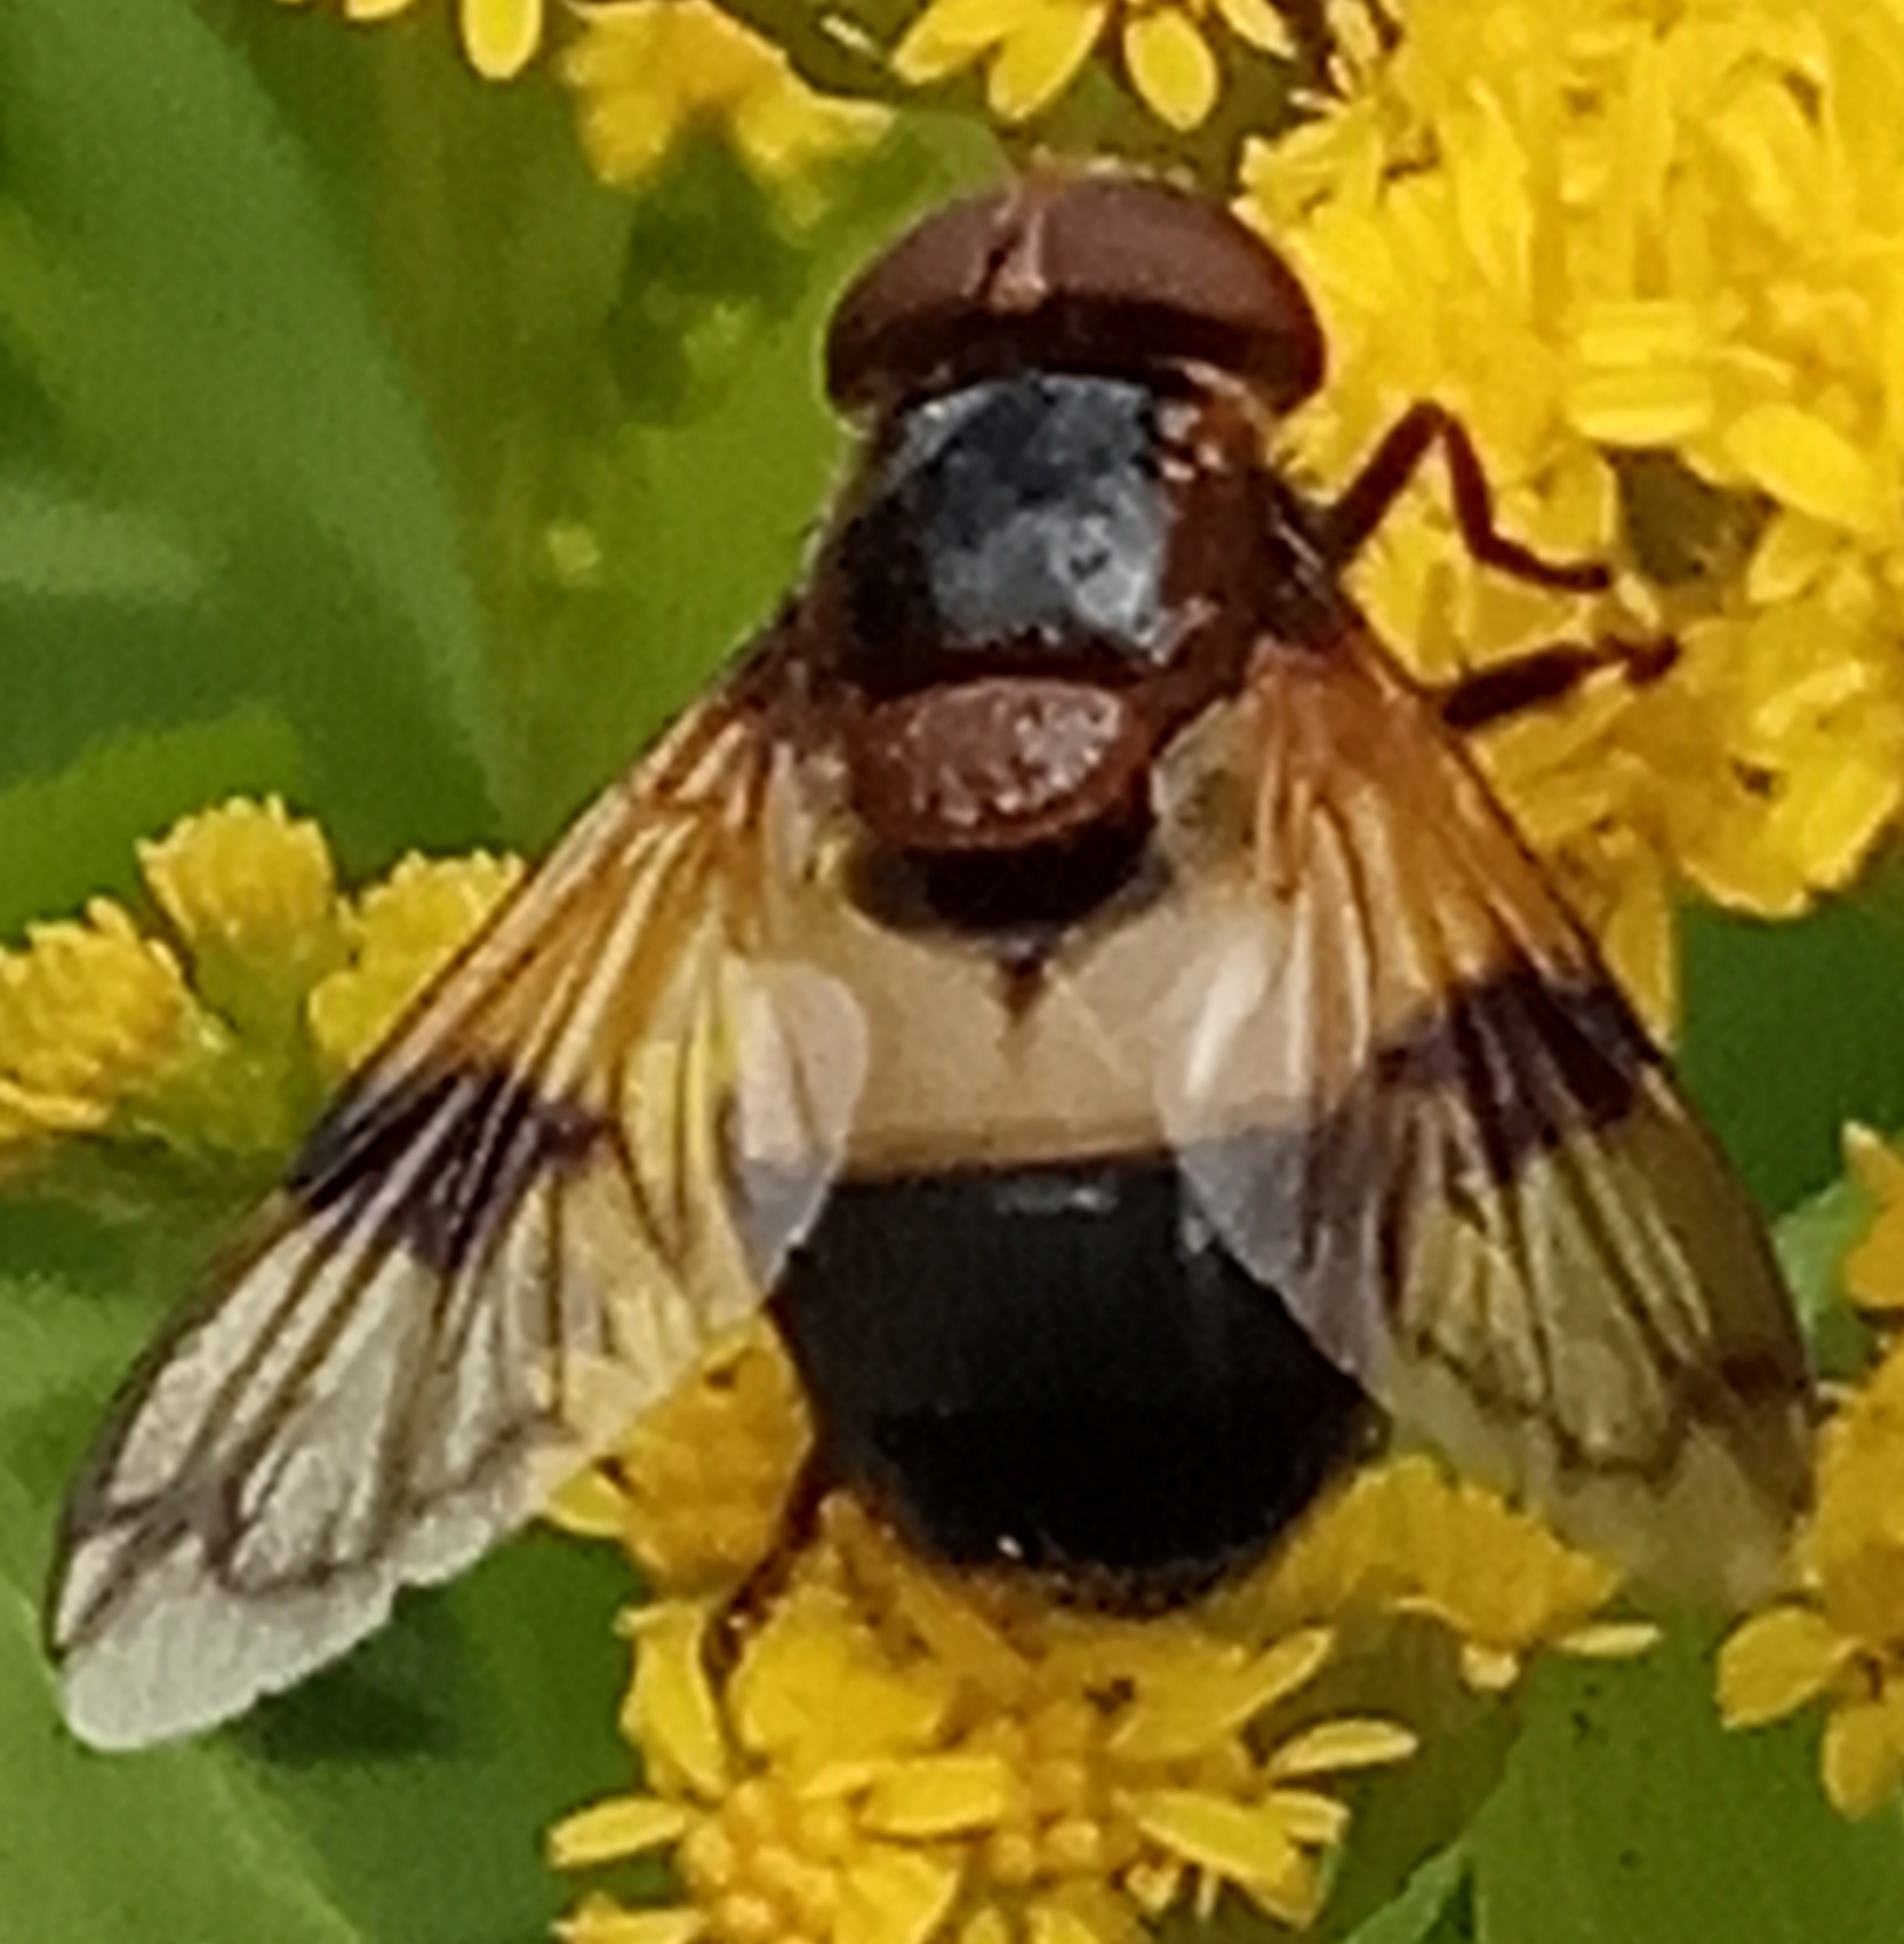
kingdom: Animalia
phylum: Arthropoda
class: Insecta
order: Diptera
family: Syrphidae
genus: Volucella
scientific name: Volucella pellucens
